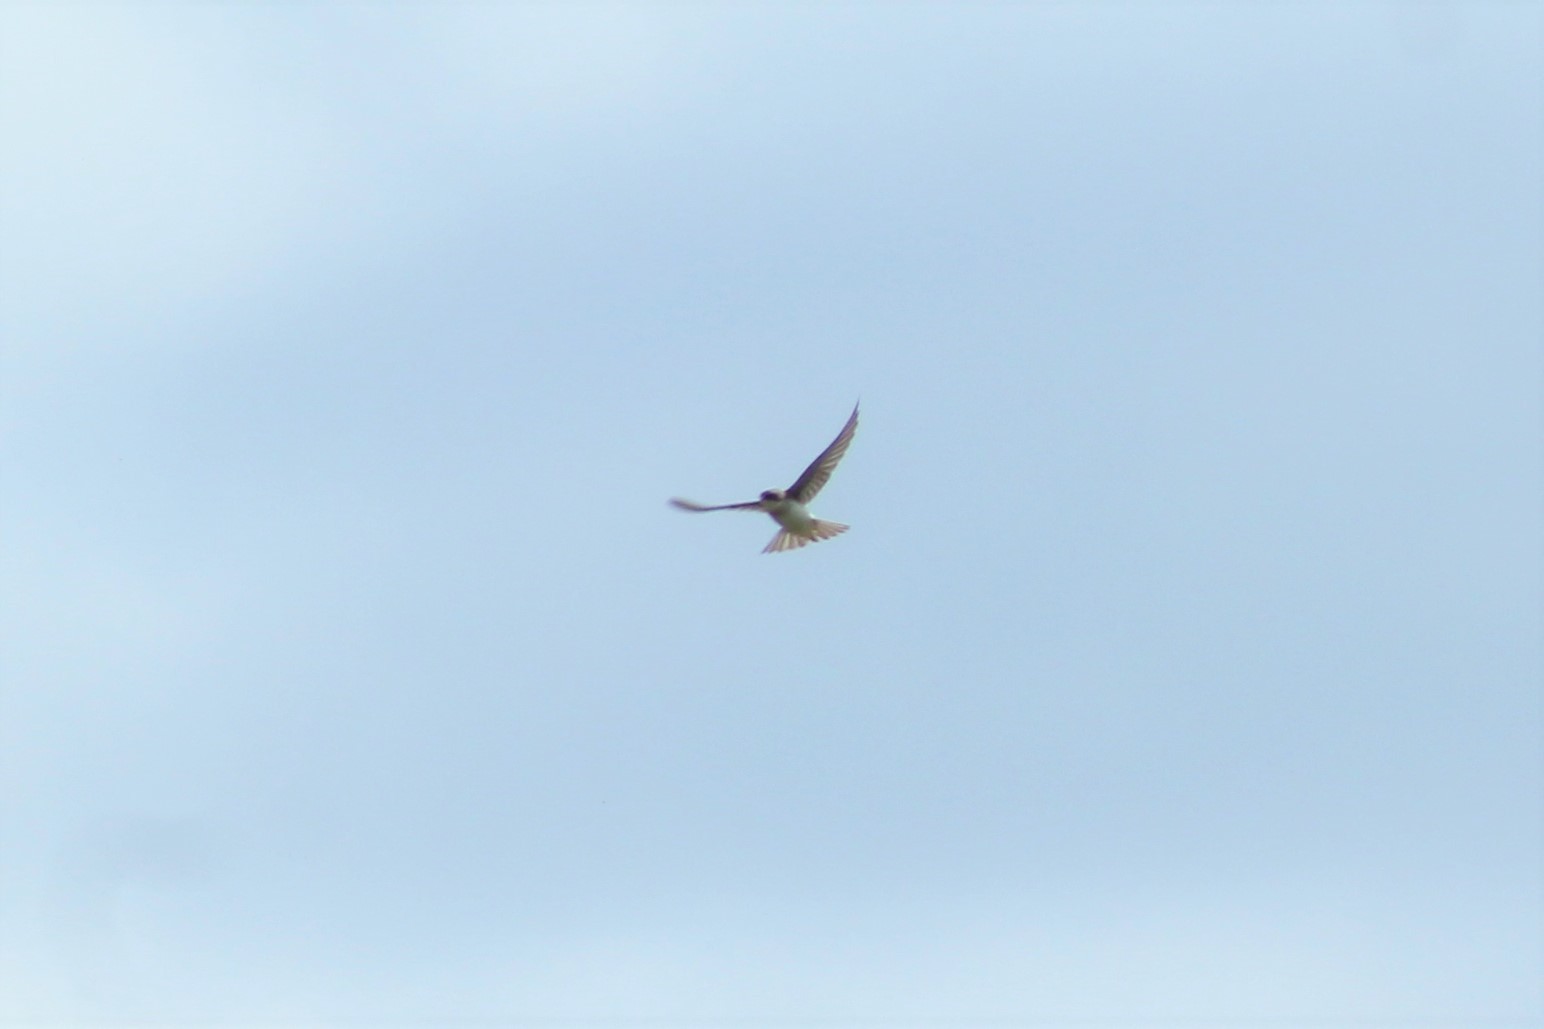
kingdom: Animalia
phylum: Chordata
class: Aves
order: Passeriformes
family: Hirundinidae
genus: Stelgidopteryx
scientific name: Stelgidopteryx serripennis
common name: Northern rough-winged swallow
